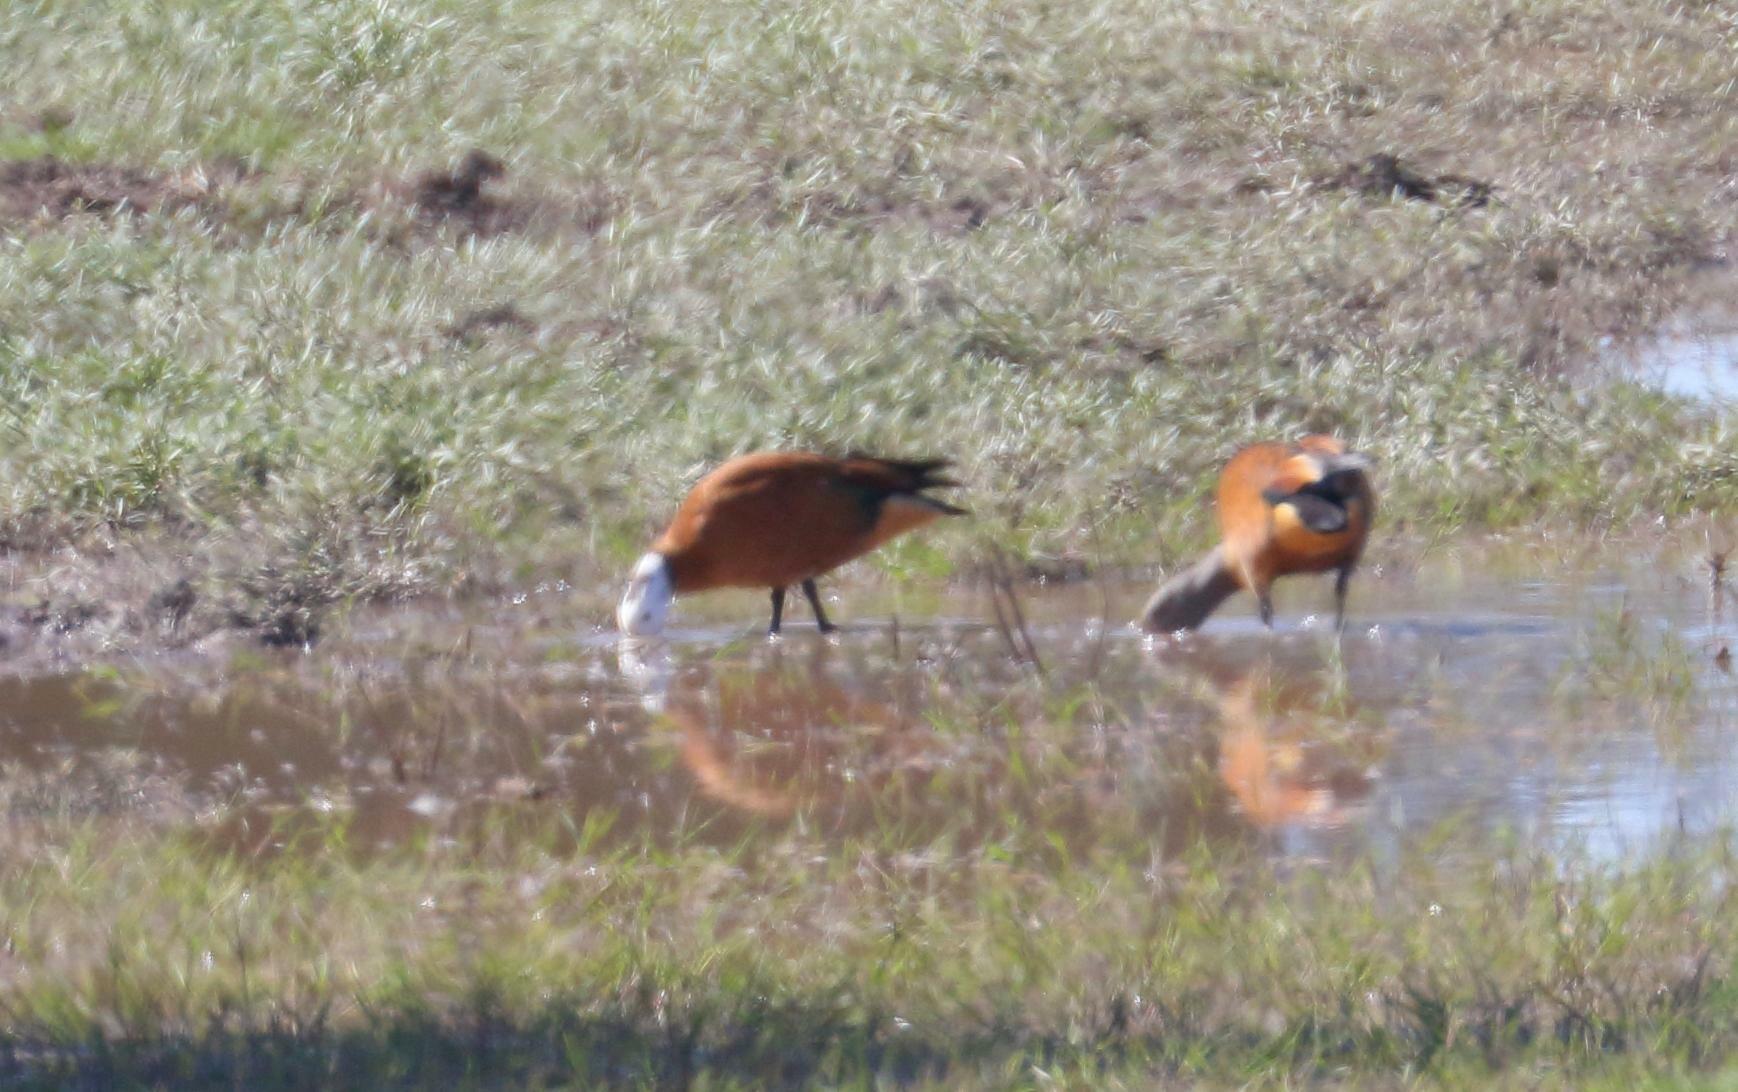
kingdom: Animalia
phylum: Chordata
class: Aves
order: Anseriformes
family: Anatidae
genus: Tadorna
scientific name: Tadorna cana
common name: South african shelduck
